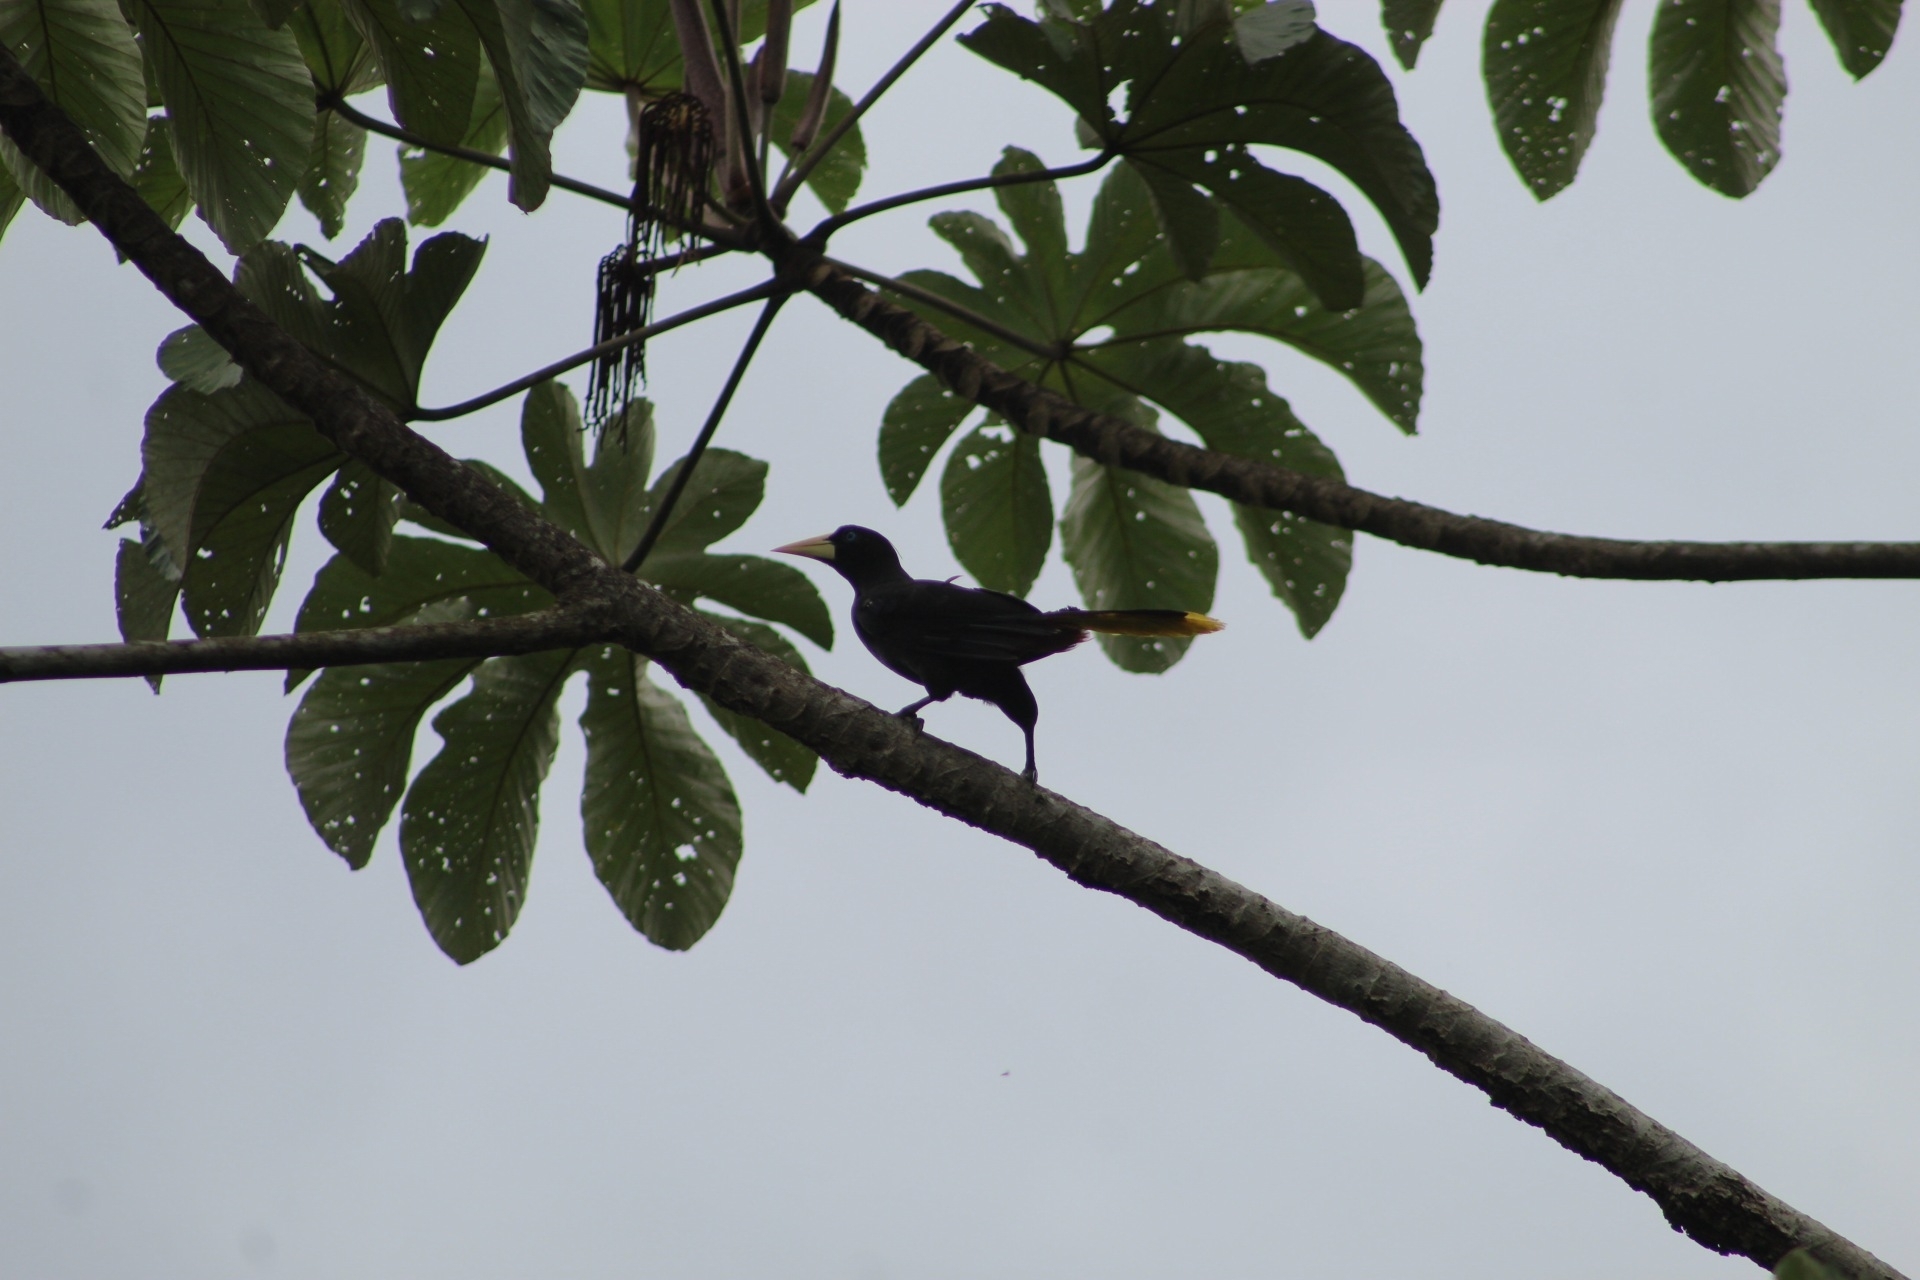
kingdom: Animalia
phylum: Chordata
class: Aves
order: Passeriformes
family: Icteridae
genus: Psarocolius
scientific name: Psarocolius decumanus
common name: Crested oropendola
